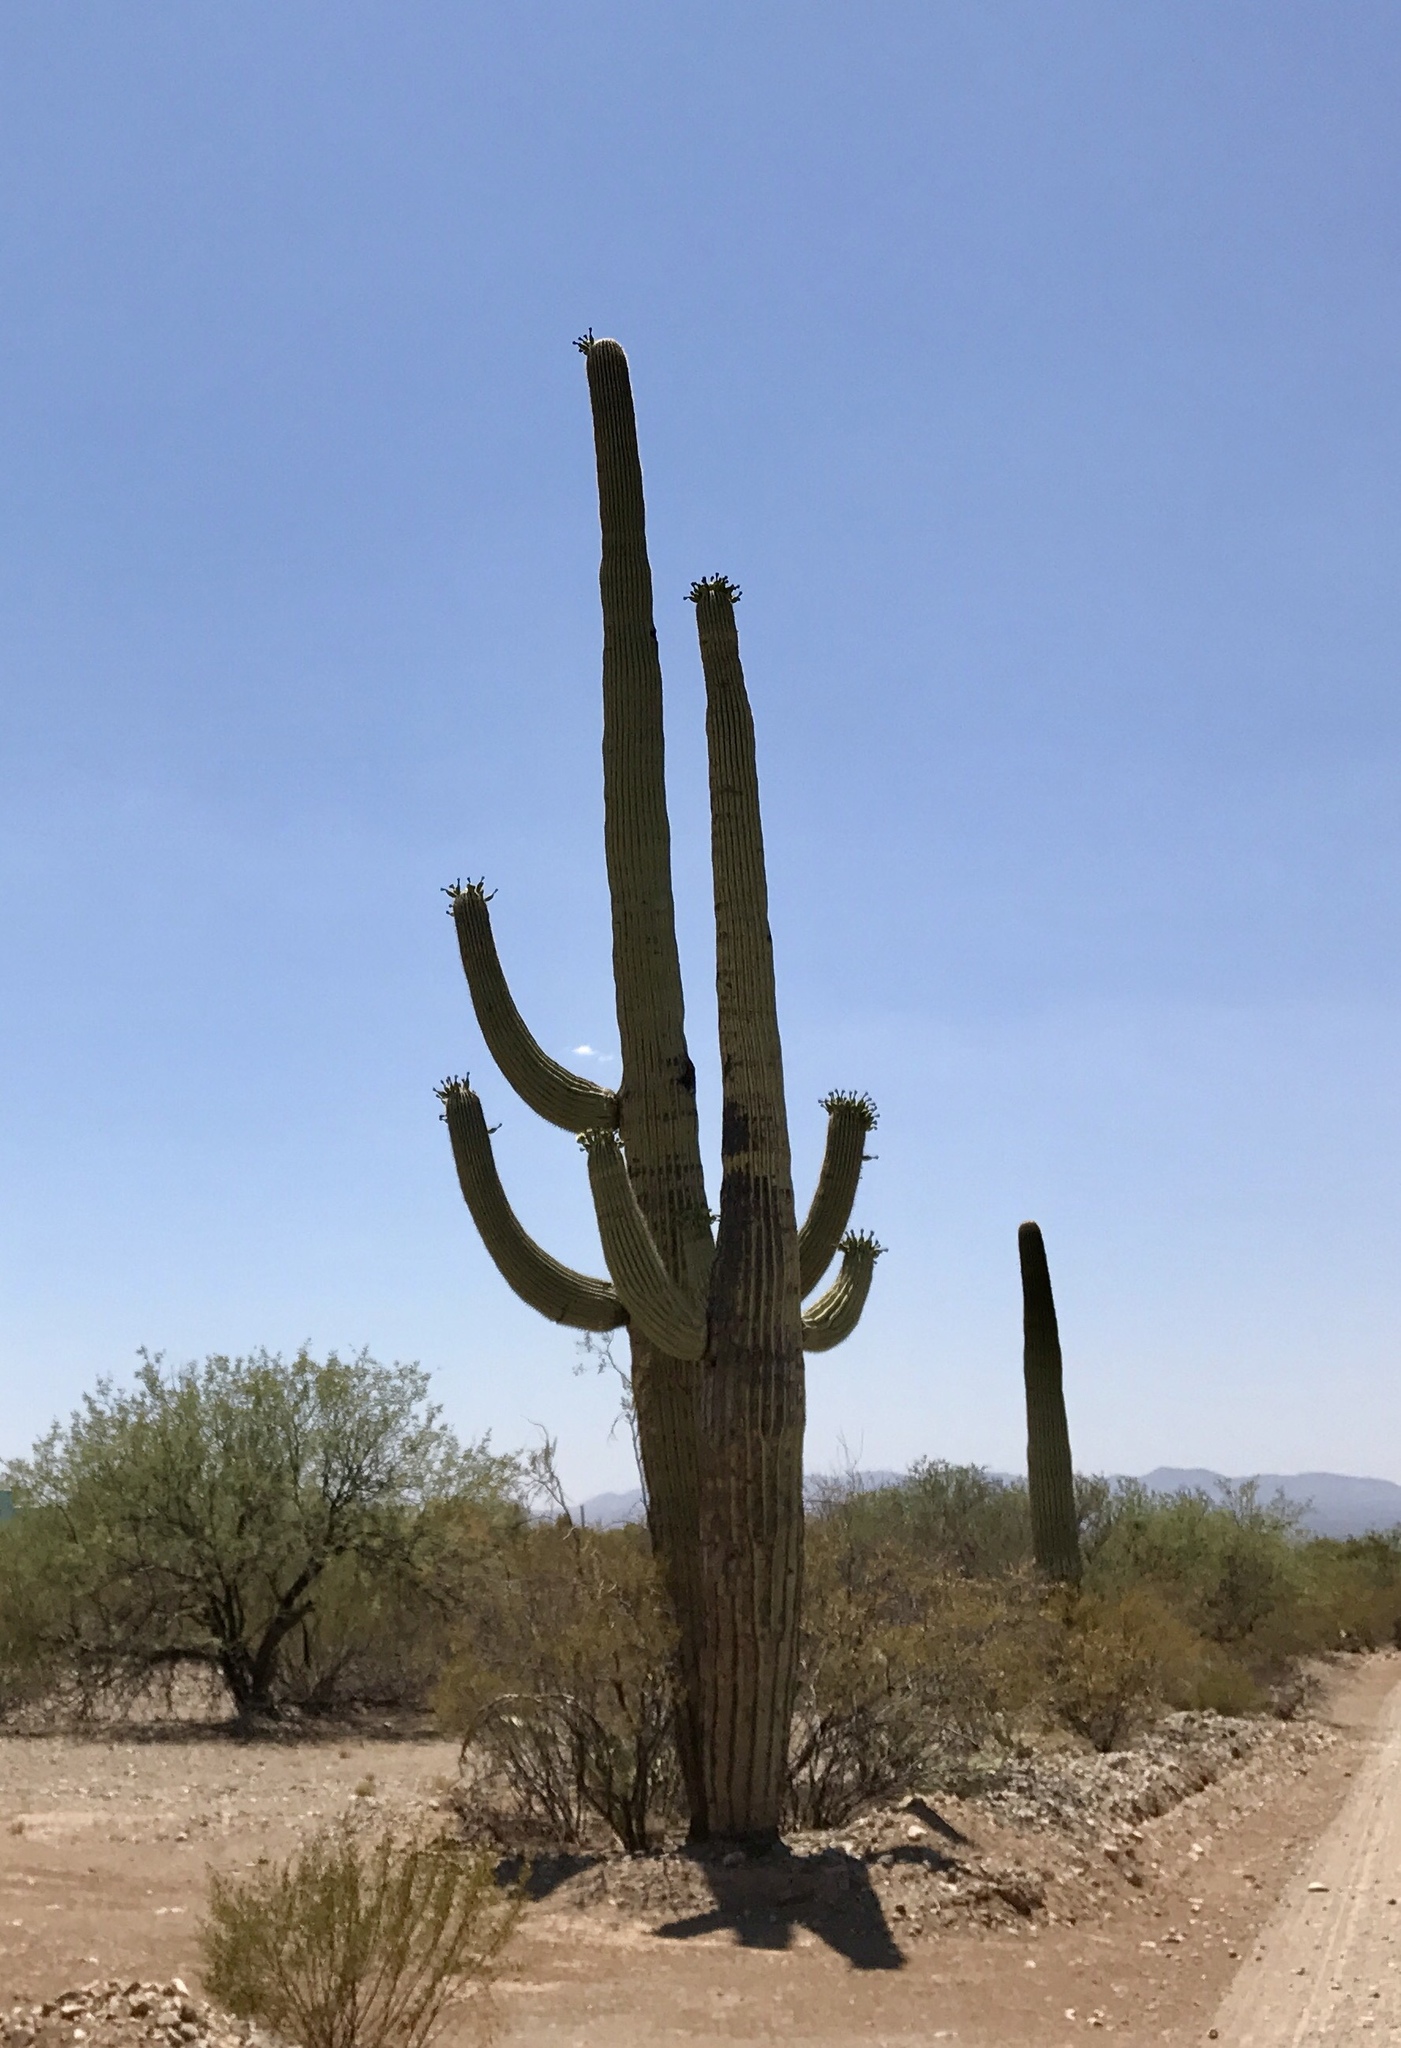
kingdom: Plantae
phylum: Tracheophyta
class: Magnoliopsida
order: Caryophyllales
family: Cactaceae
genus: Carnegiea
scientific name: Carnegiea gigantea
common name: Saguaro
